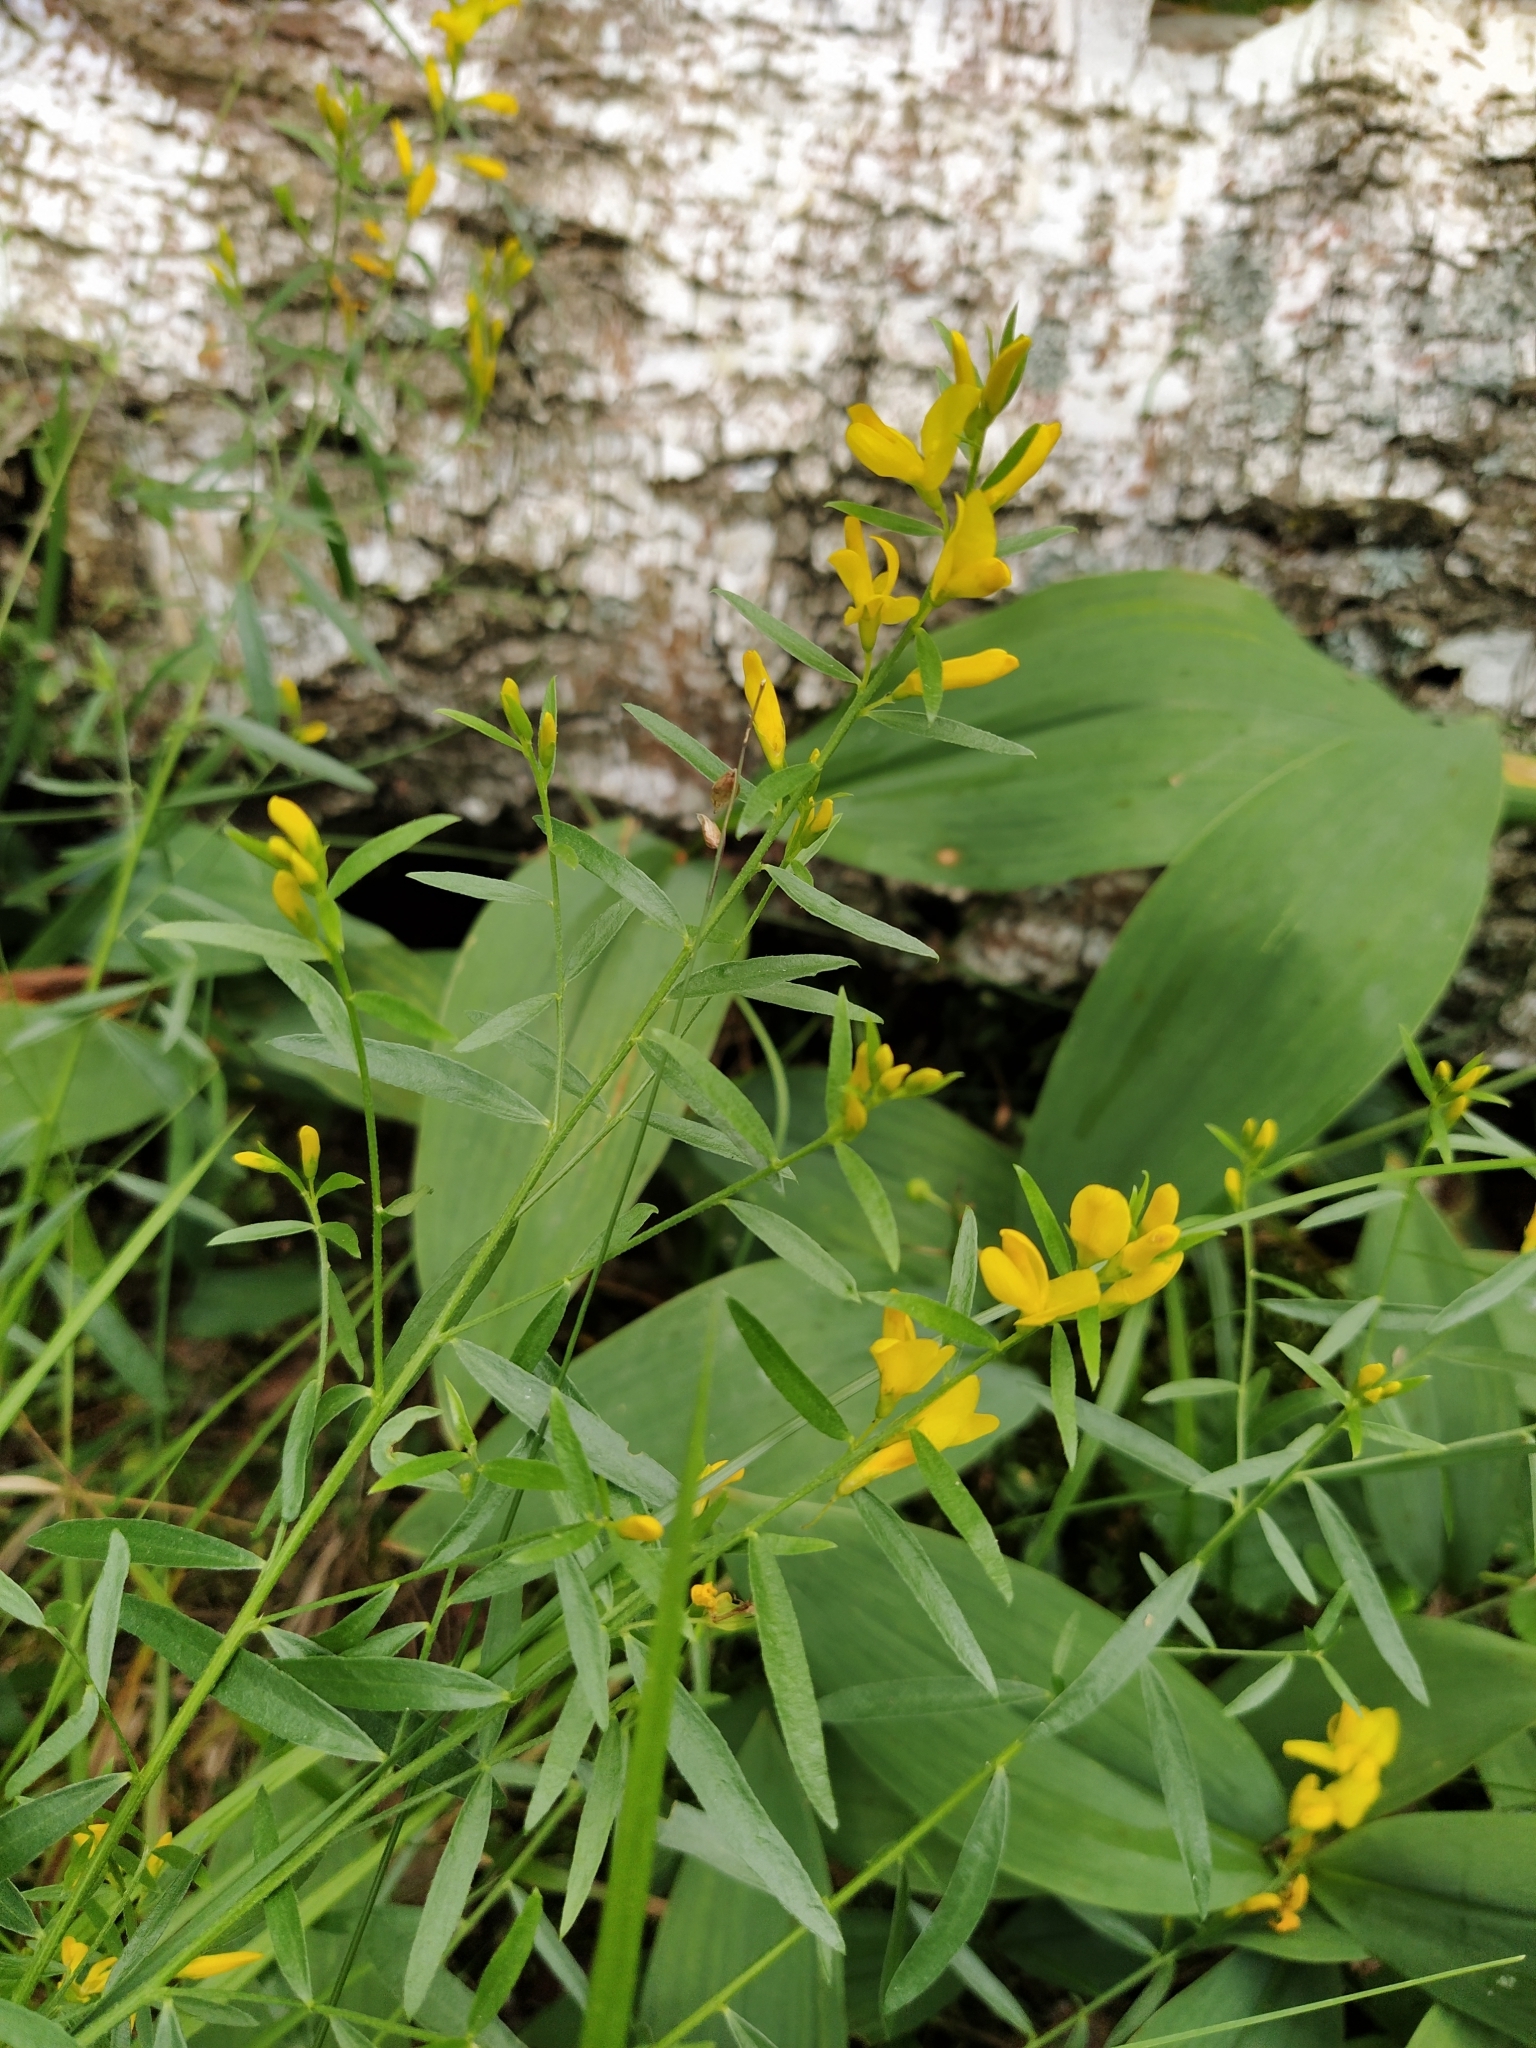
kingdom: Plantae
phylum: Tracheophyta
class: Magnoliopsida
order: Fabales
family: Fabaceae
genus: Genista
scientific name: Genista tinctoria
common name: Dyer's greenweed
